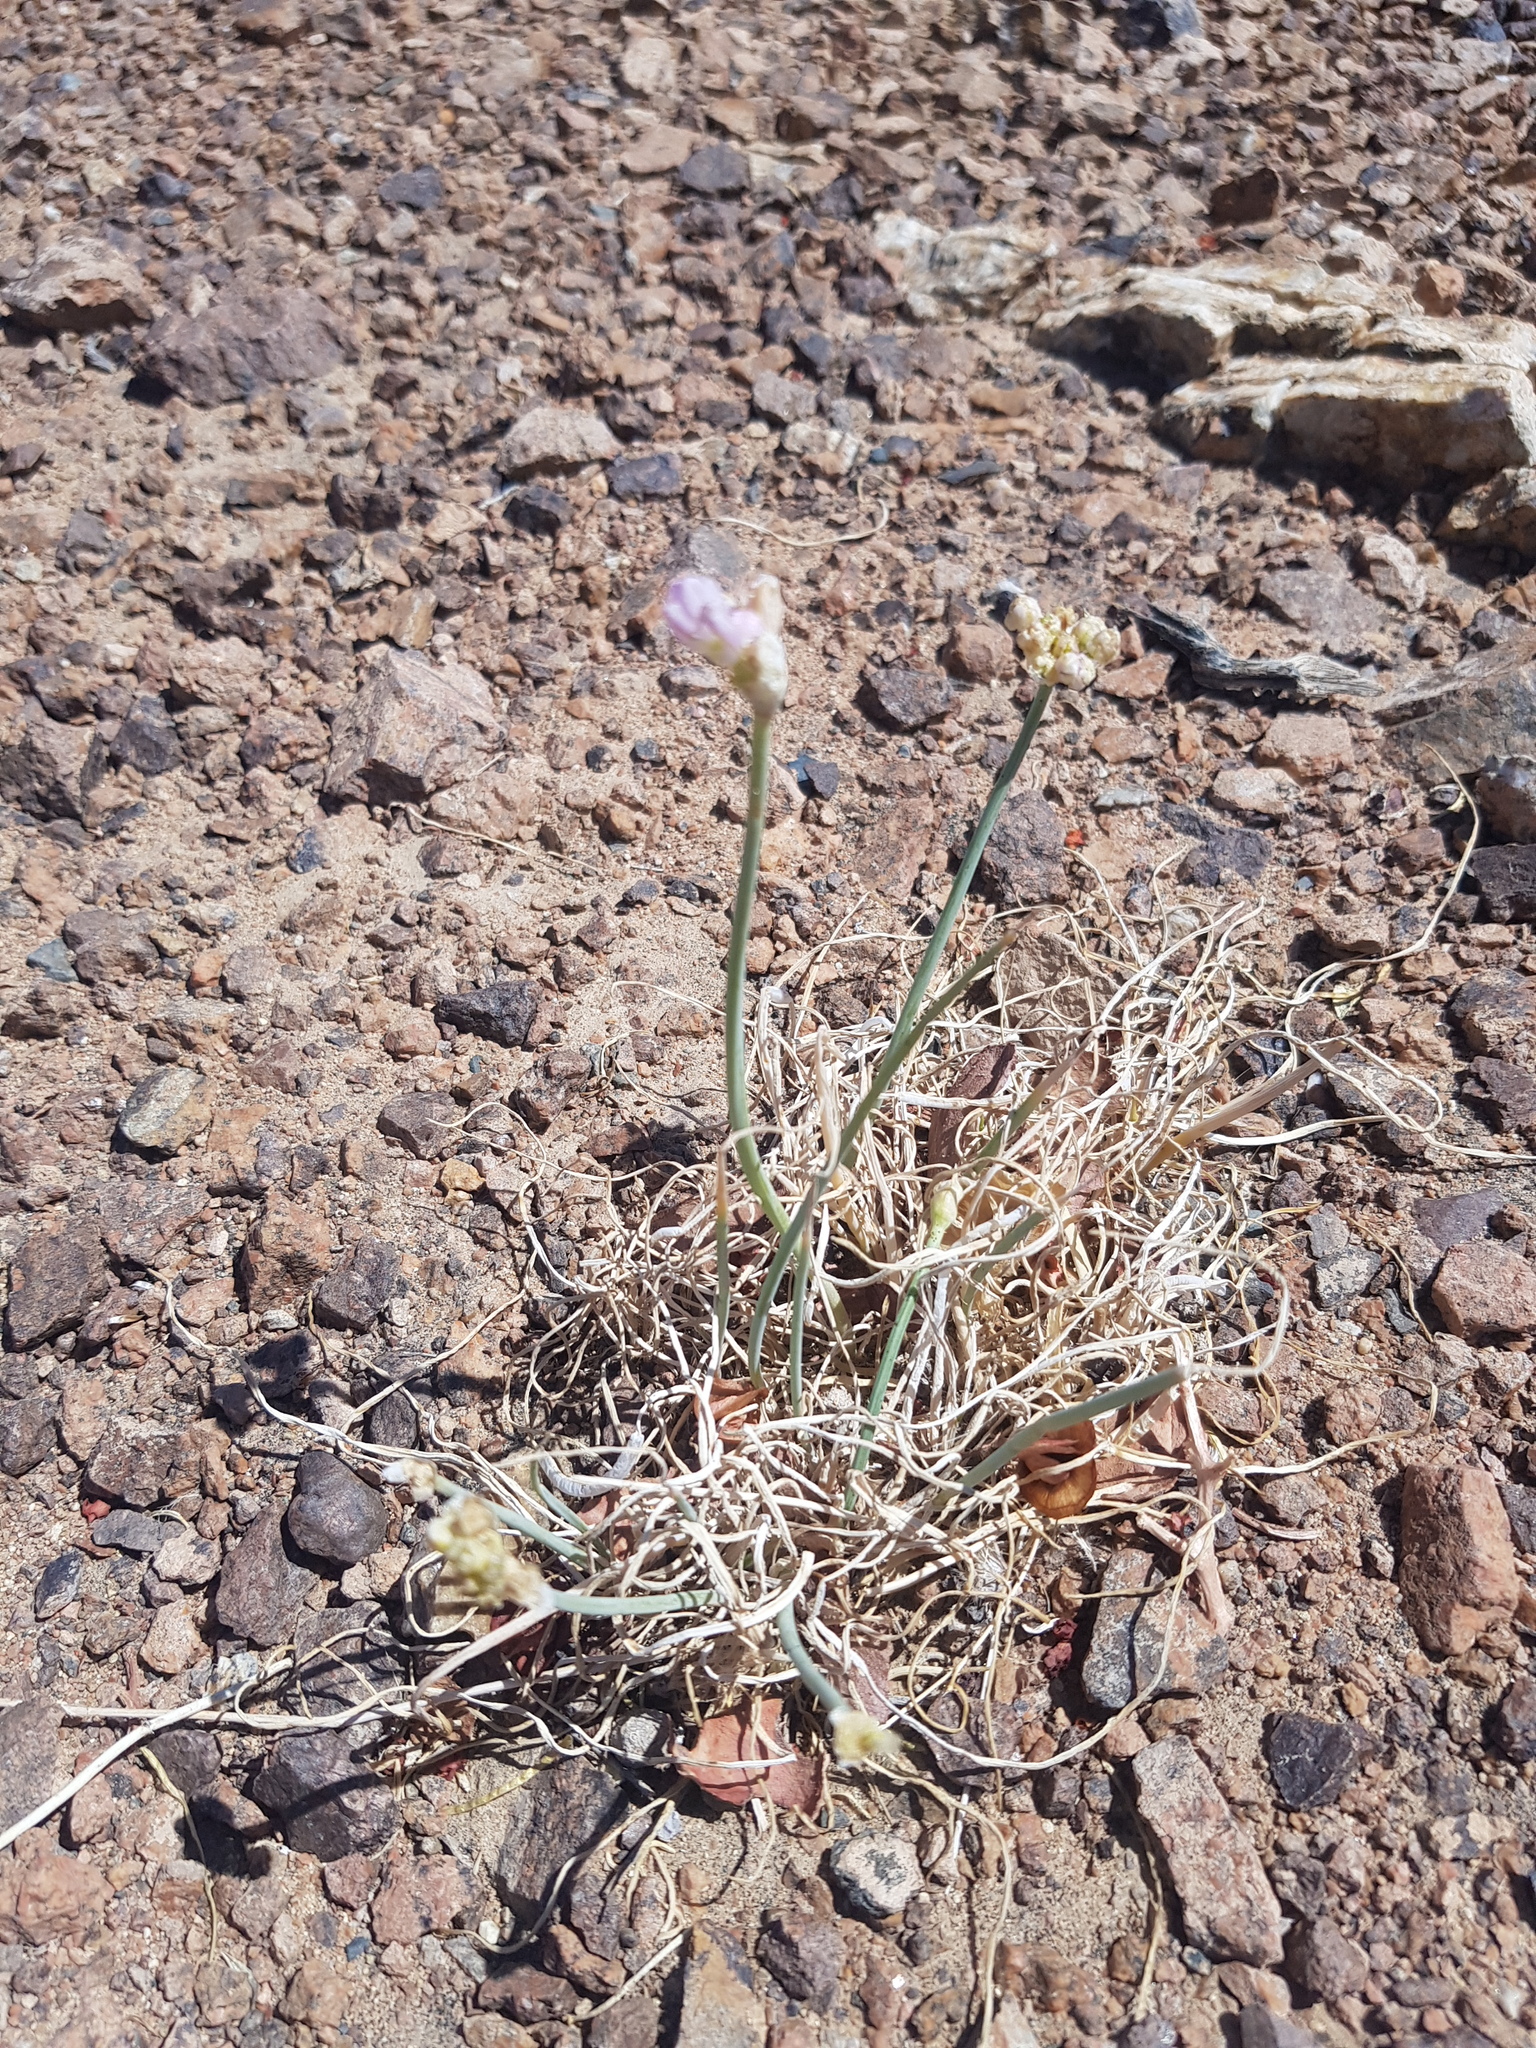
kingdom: Plantae
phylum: Tracheophyta
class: Liliopsida
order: Asparagales
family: Amaryllidaceae
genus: Allium
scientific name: Allium mongolicum
